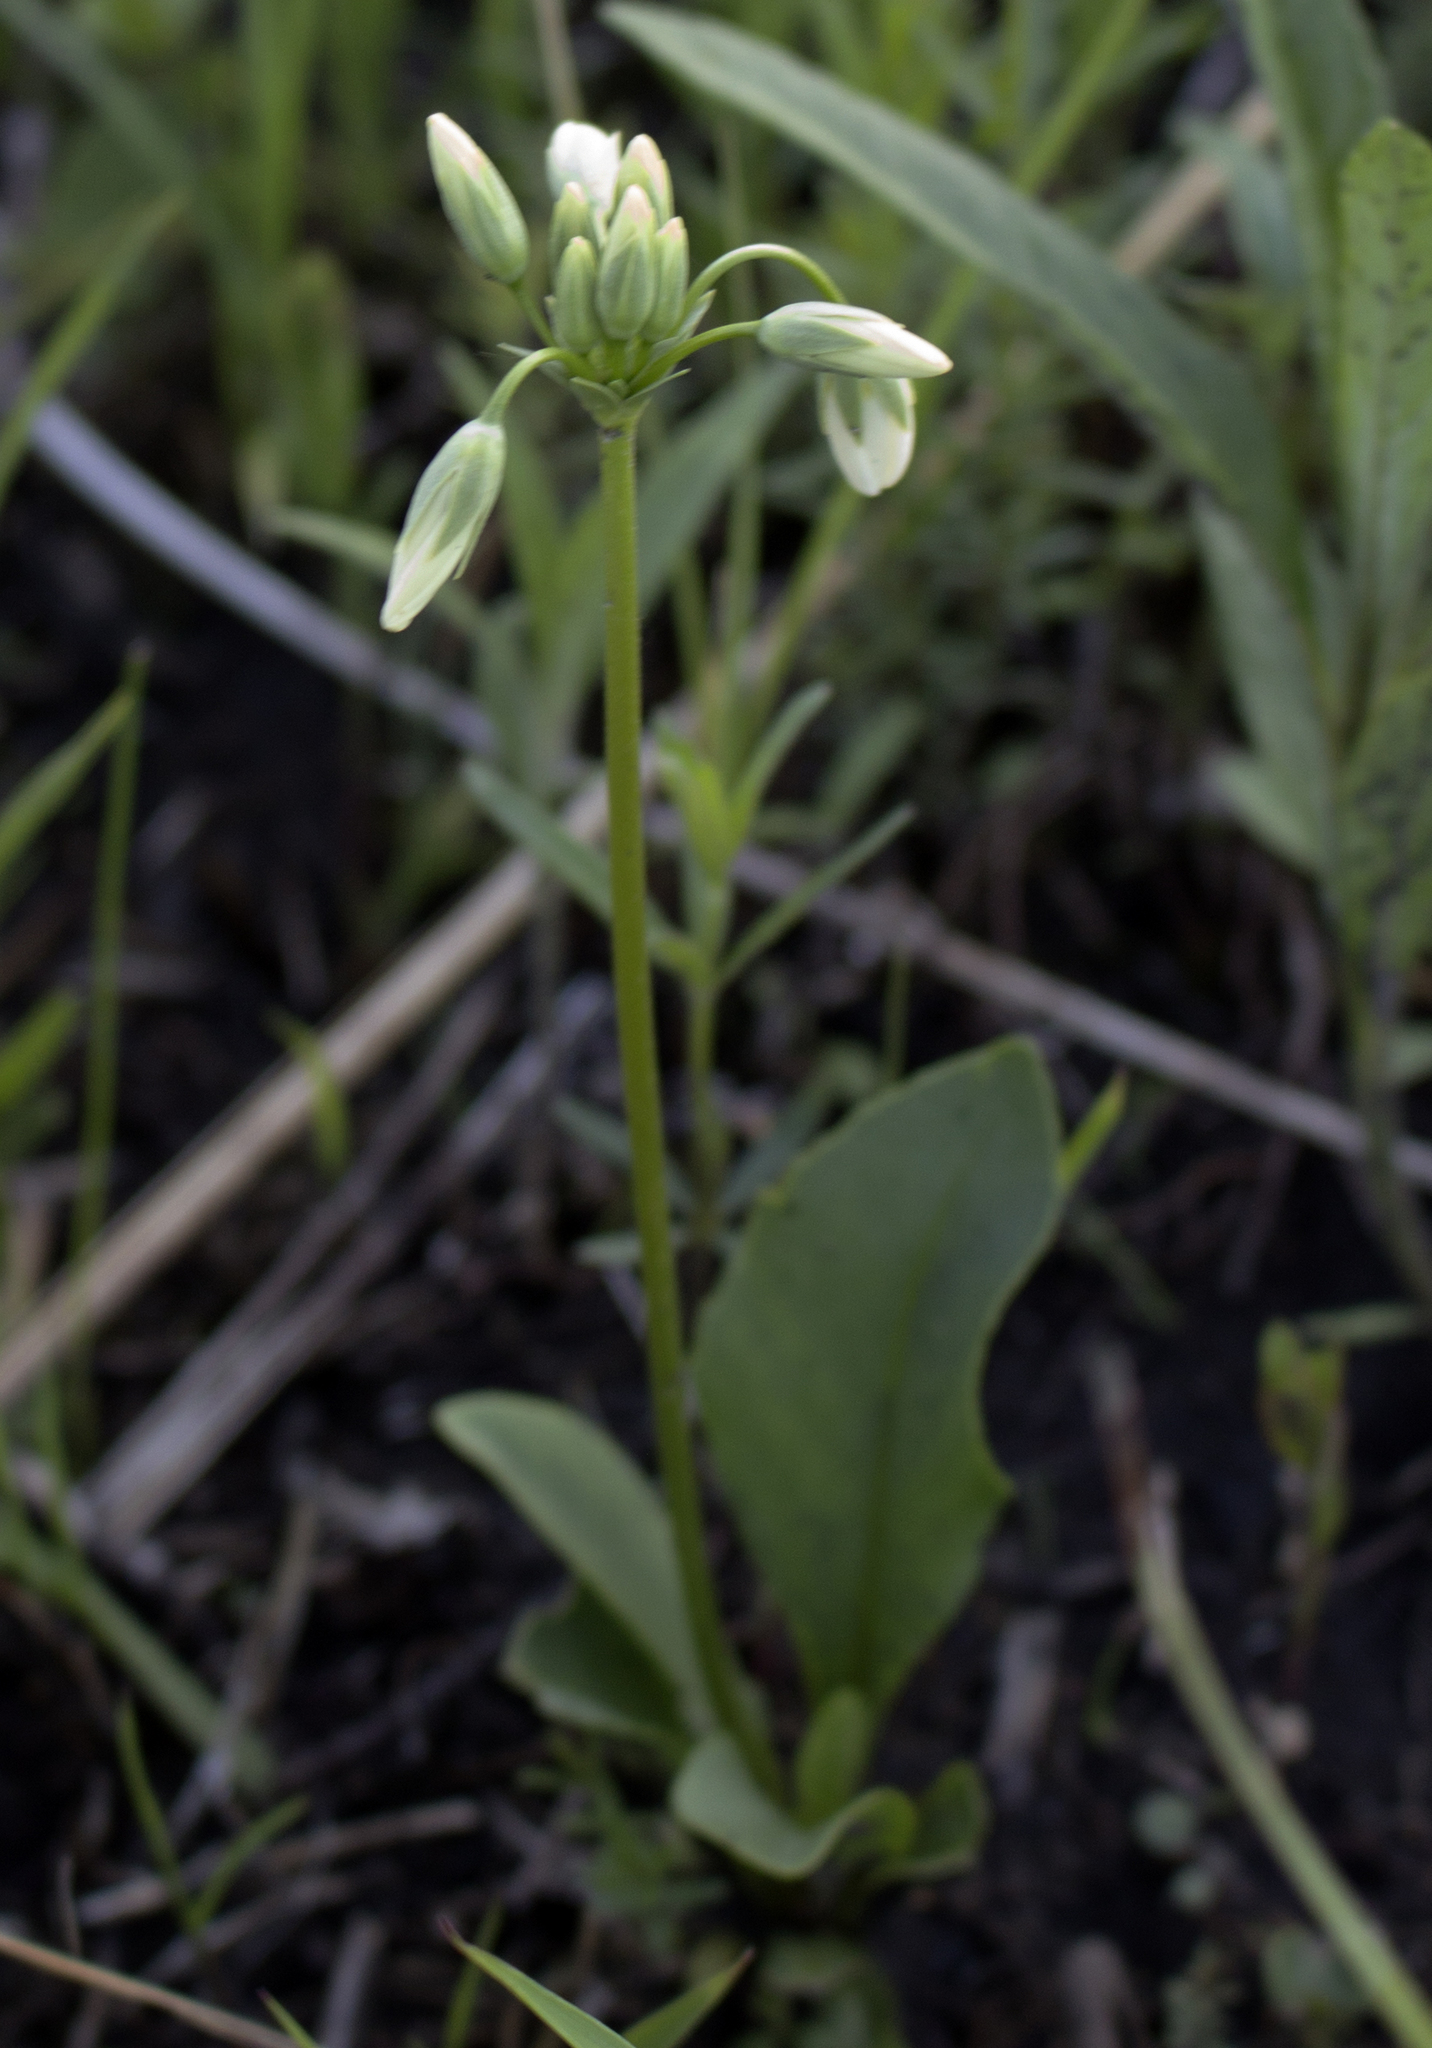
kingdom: Plantae
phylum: Tracheophyta
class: Magnoliopsida
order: Ericales
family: Primulaceae
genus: Dodecatheon
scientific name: Dodecatheon meadia
